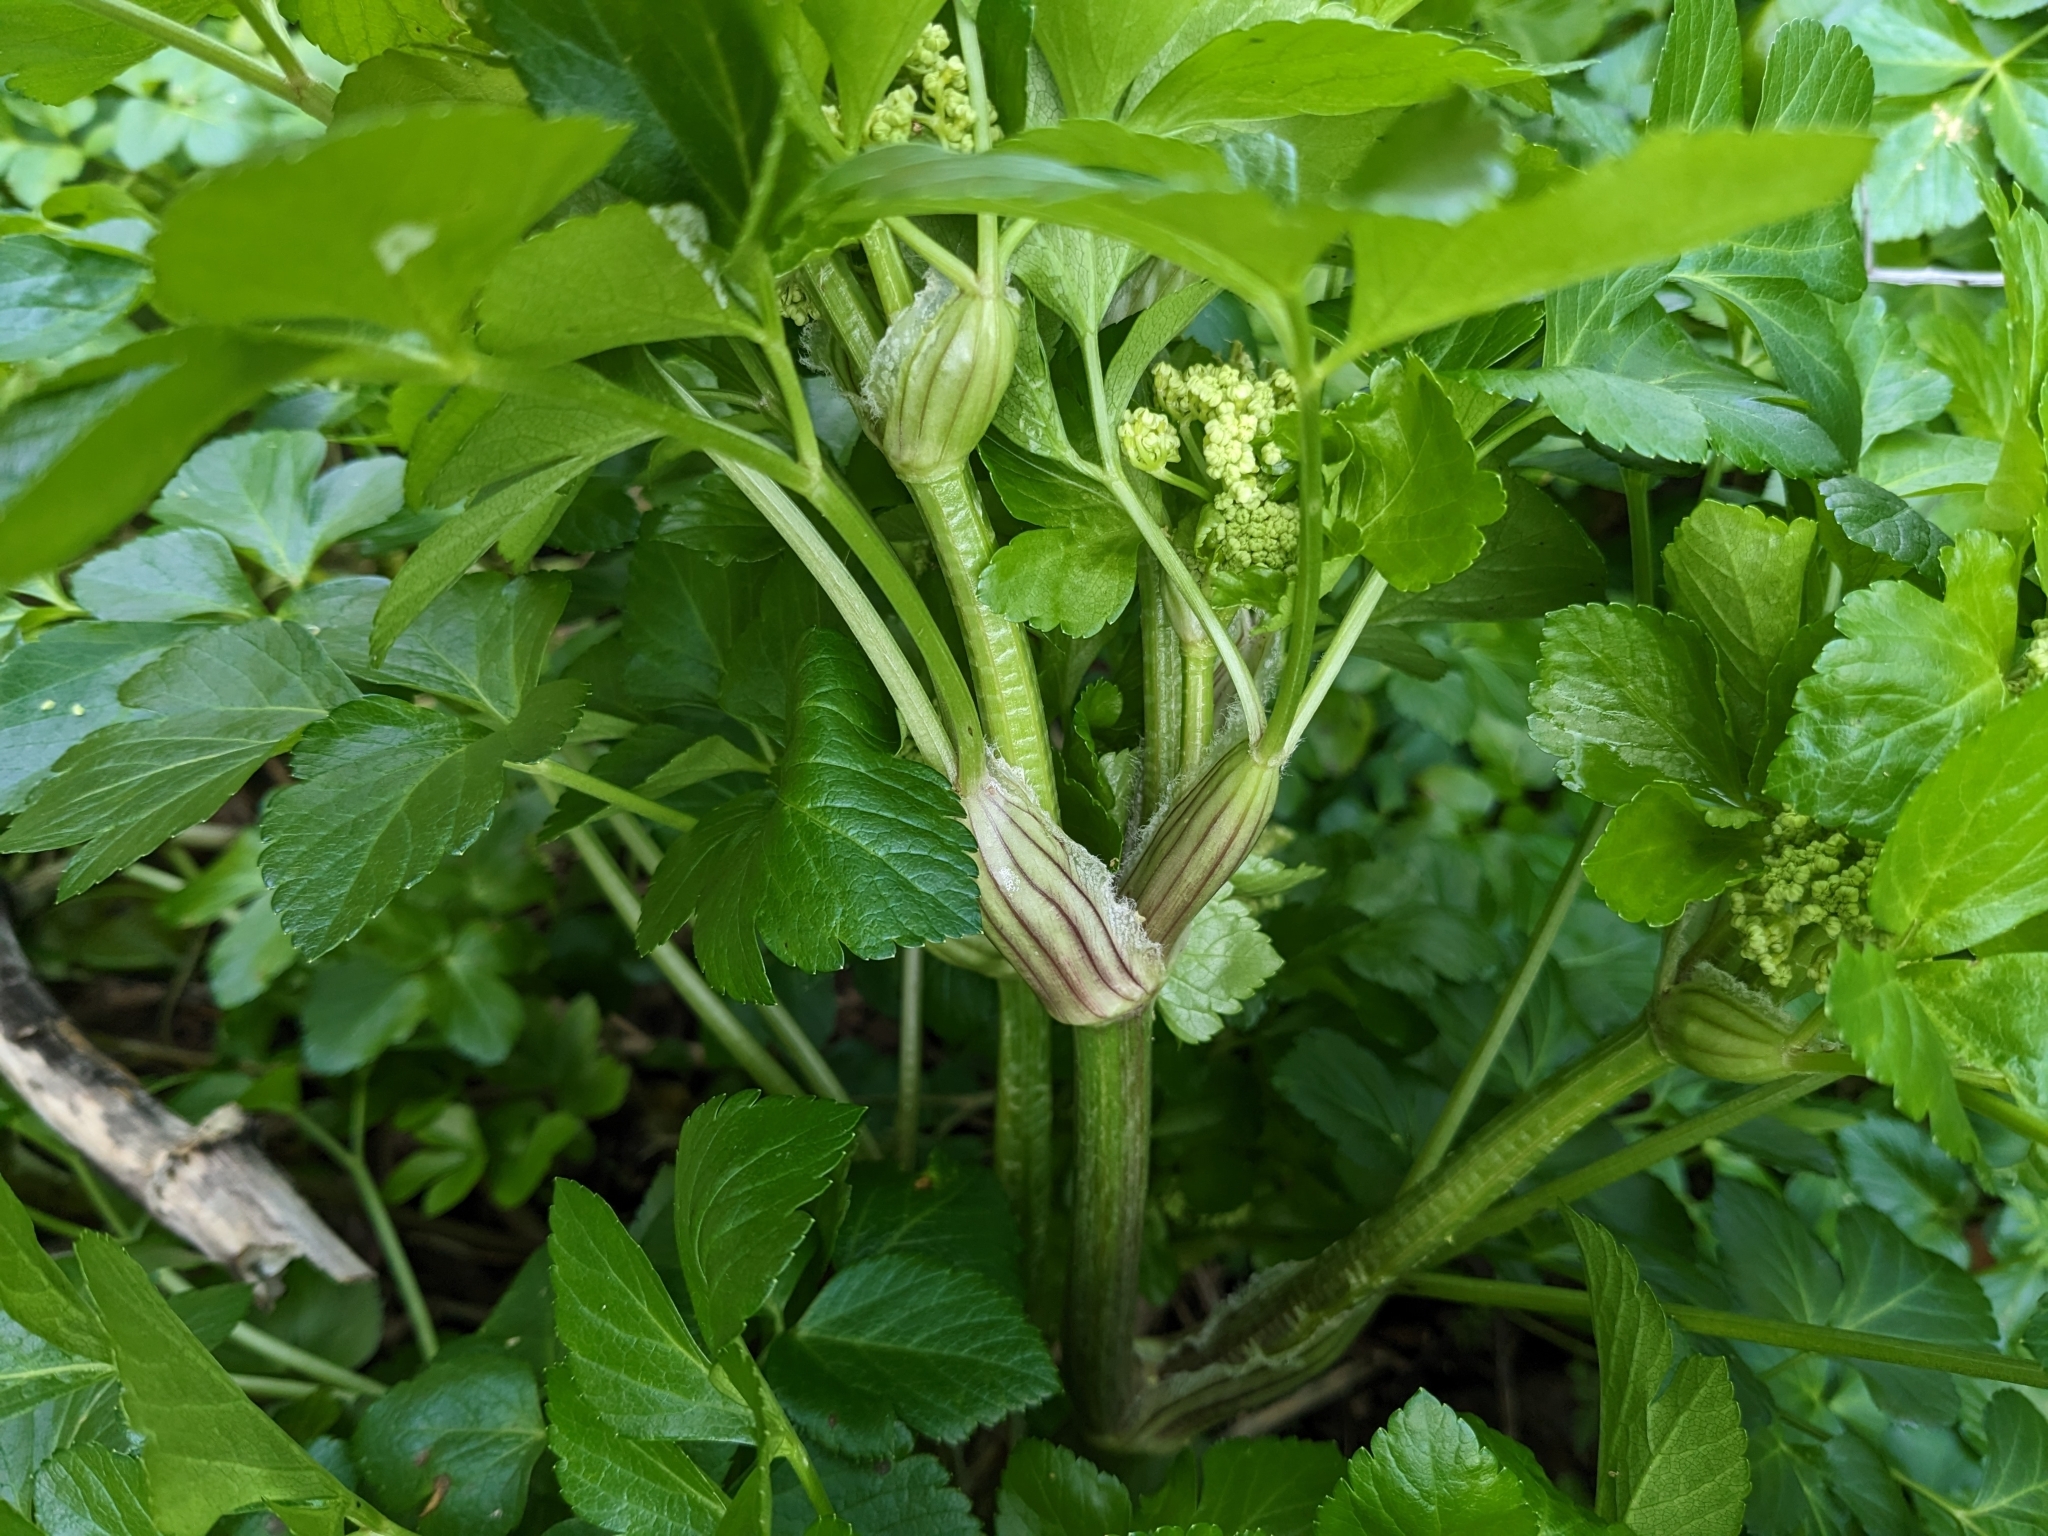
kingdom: Plantae
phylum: Tracheophyta
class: Magnoliopsida
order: Apiales
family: Apiaceae
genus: Smyrnium
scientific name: Smyrnium olusatrum
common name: Alexanders
